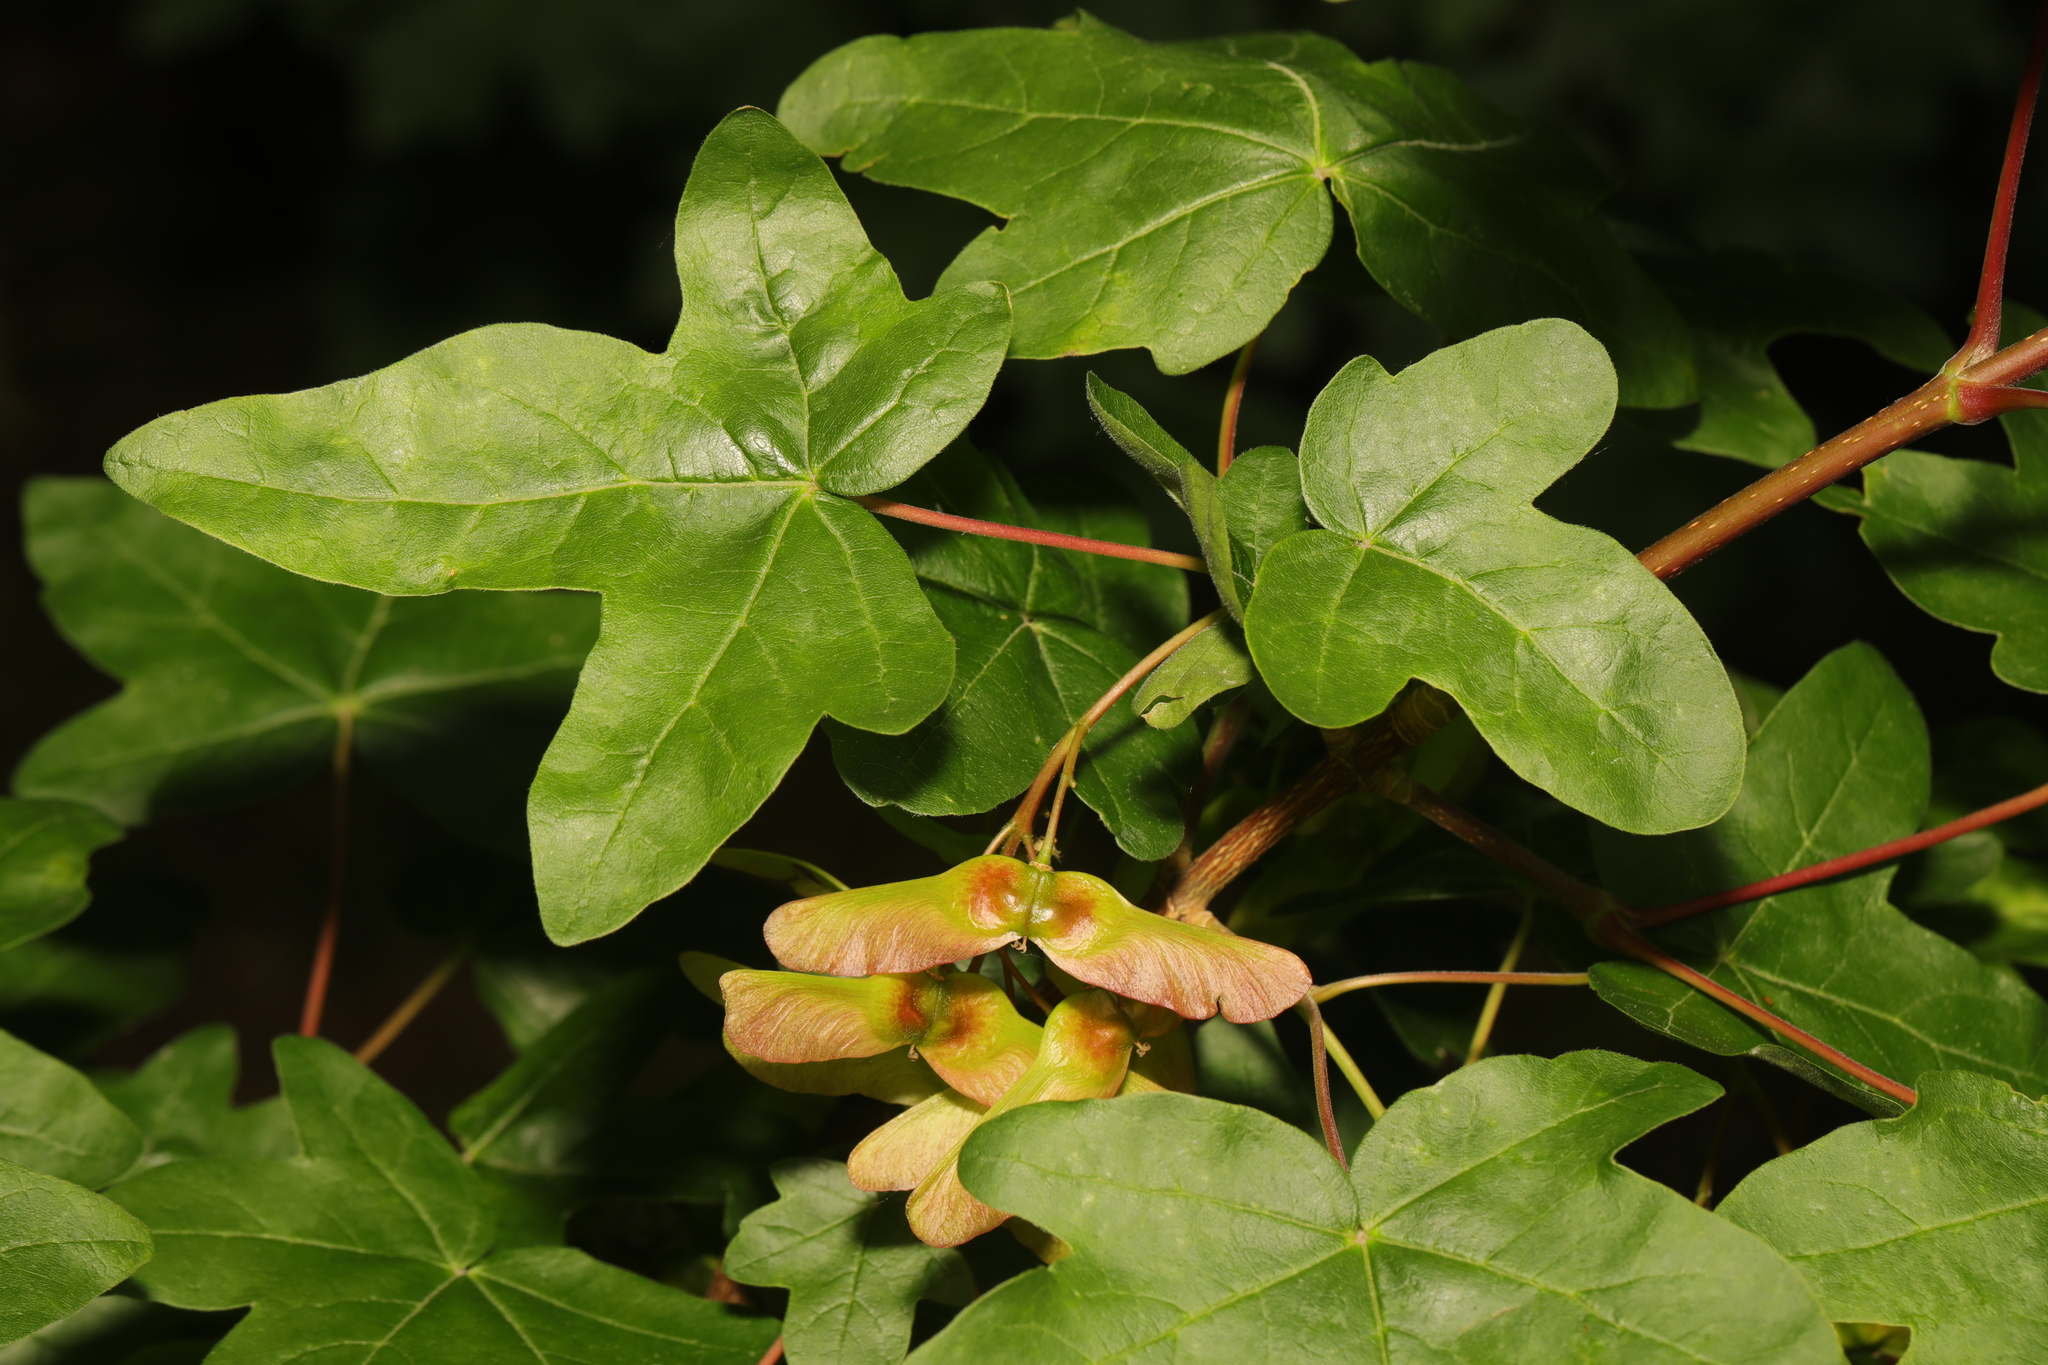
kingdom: Plantae
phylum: Tracheophyta
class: Magnoliopsida
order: Sapindales
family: Sapindaceae
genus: Acer
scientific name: Acer campestre
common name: Field maple
